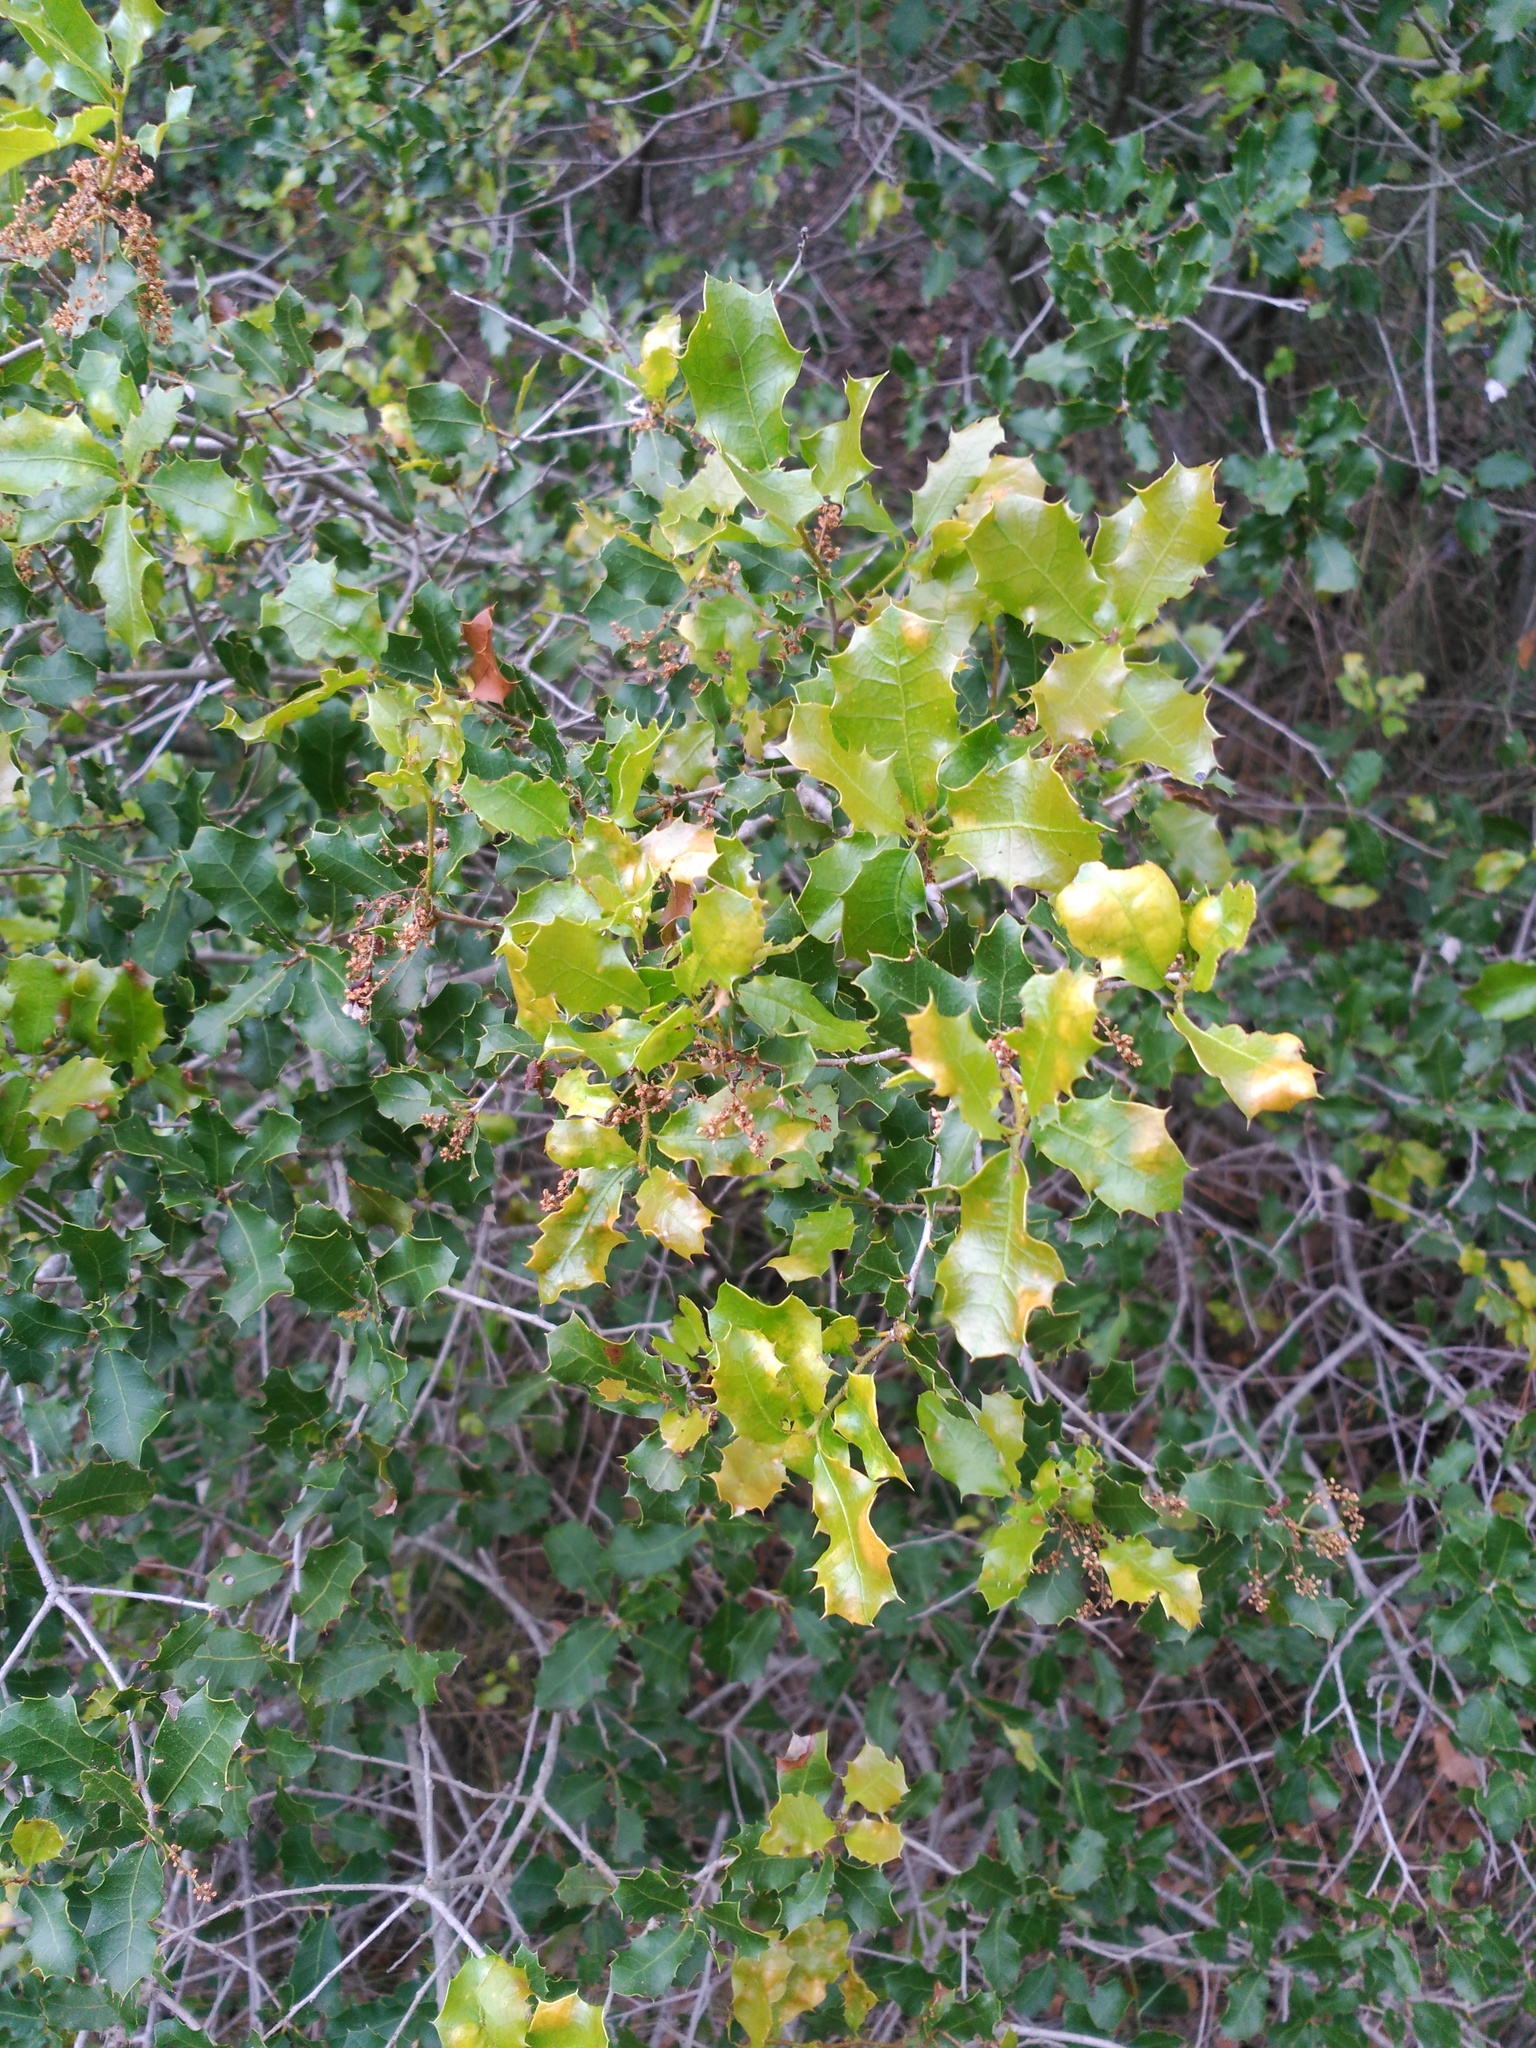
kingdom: Plantae
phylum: Tracheophyta
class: Magnoliopsida
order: Fagales
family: Fagaceae
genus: Quercus
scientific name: Quercus coccifera
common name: Kermes oak
